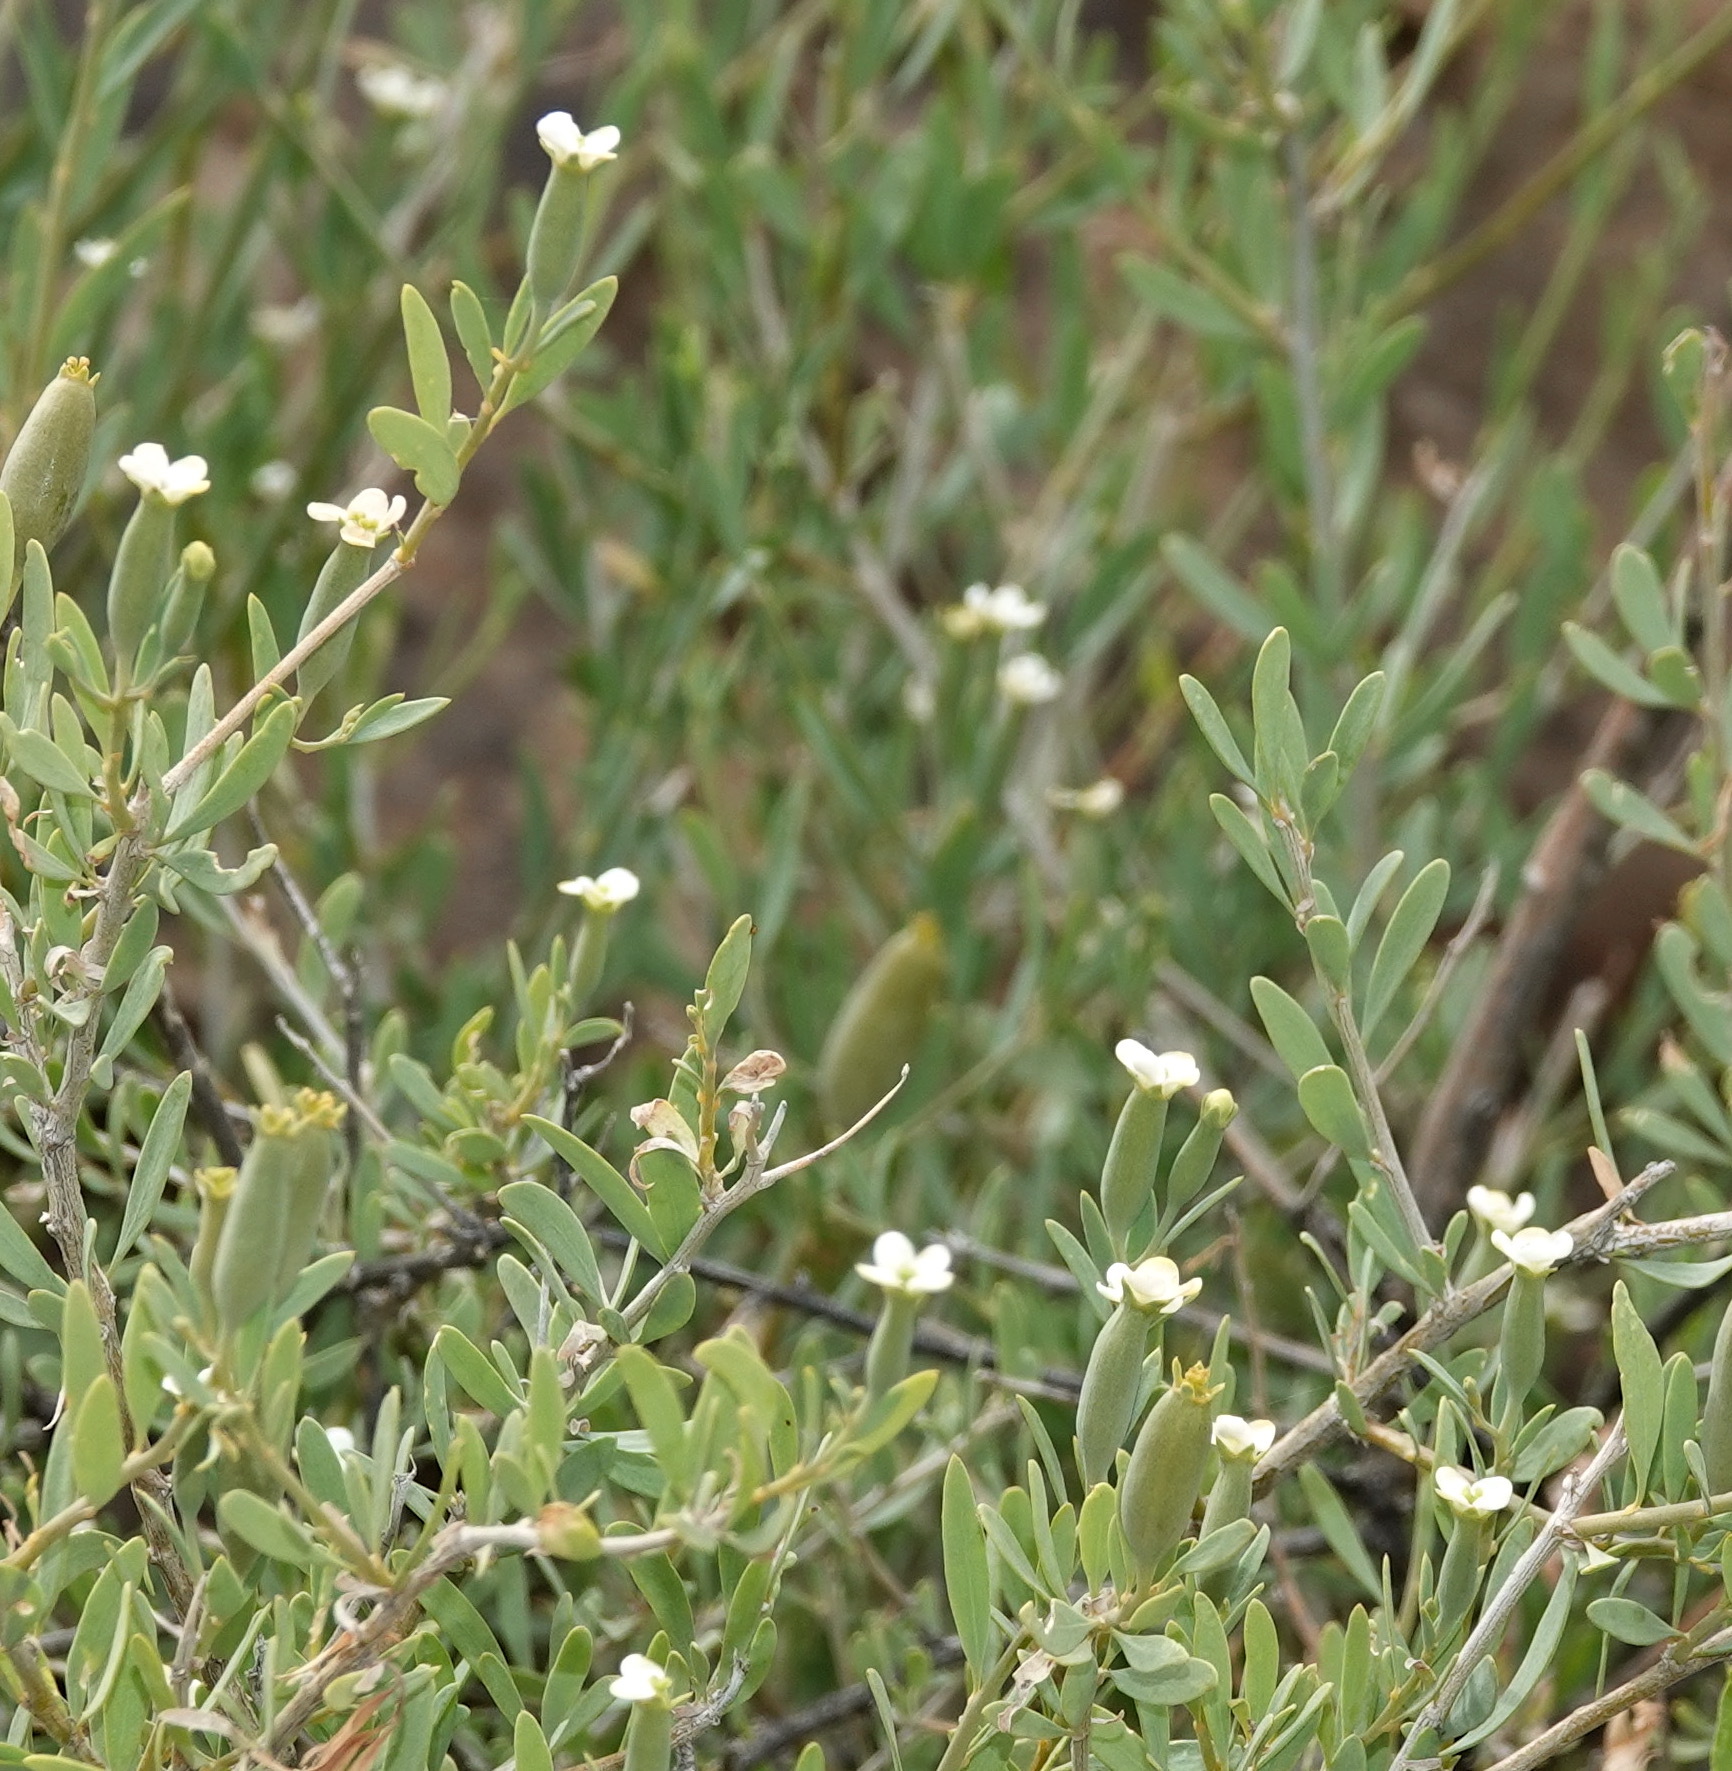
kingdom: Plantae
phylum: Tracheophyta
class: Magnoliopsida
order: Solanales
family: Montiniaceae
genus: Montinia
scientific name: Montinia caryophyllacea
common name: Wild clove-bush
